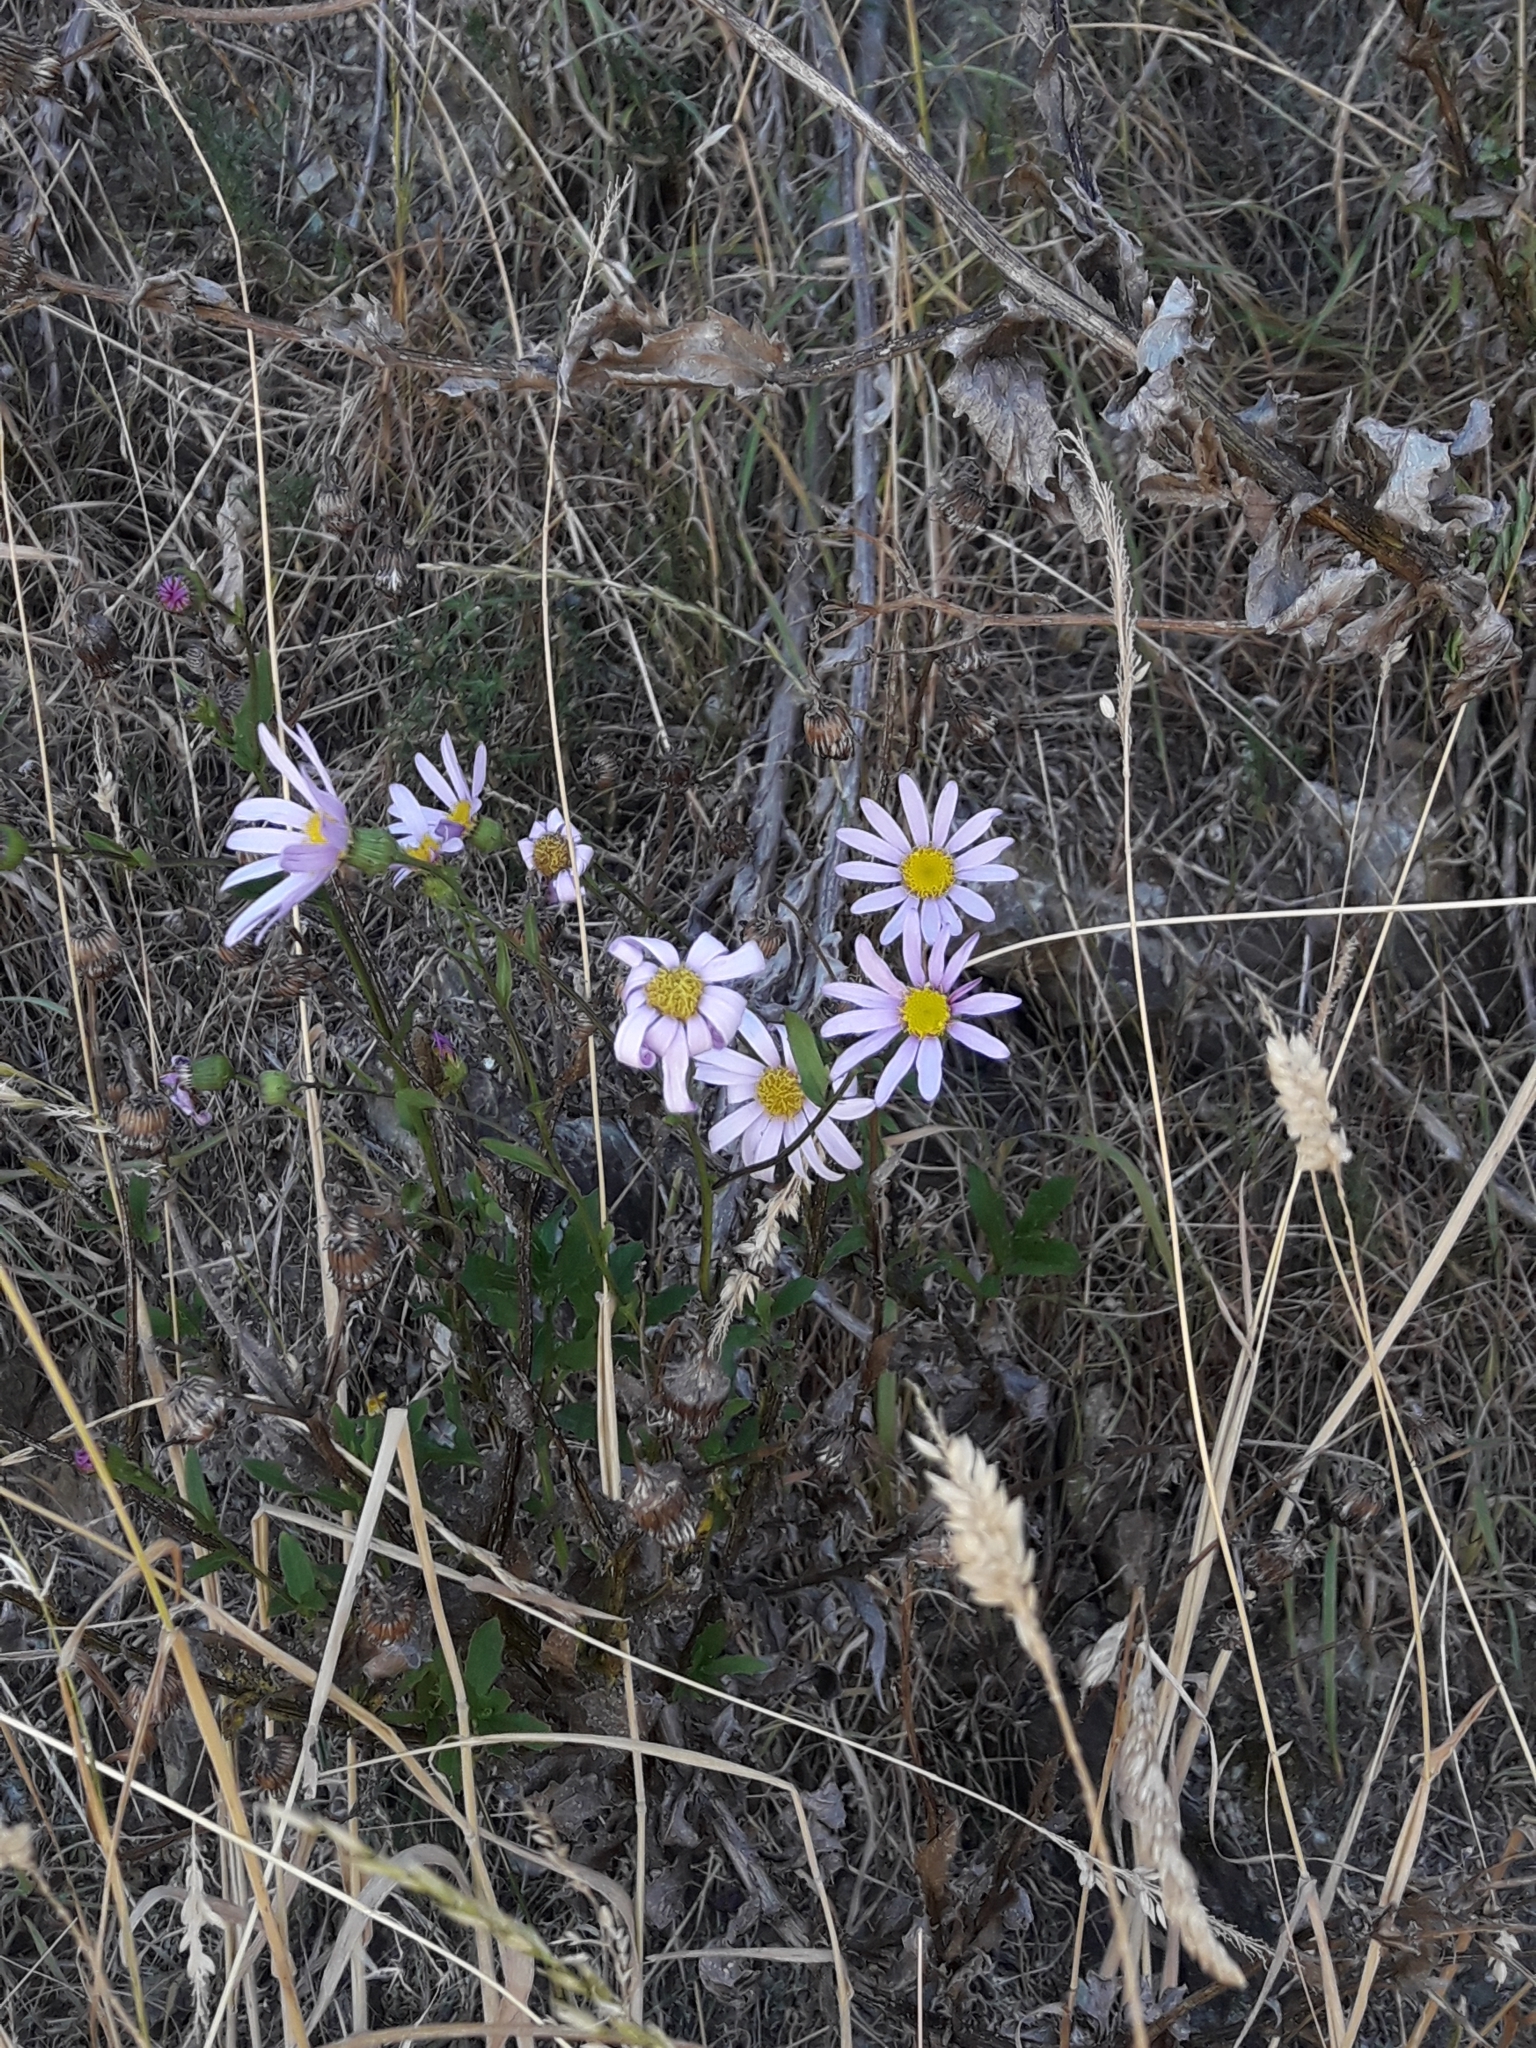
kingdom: Plantae
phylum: Tracheophyta
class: Magnoliopsida
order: Asterales
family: Asteraceae
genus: Senecio
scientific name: Senecio glastifolius
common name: Woad-leaved ragwort
